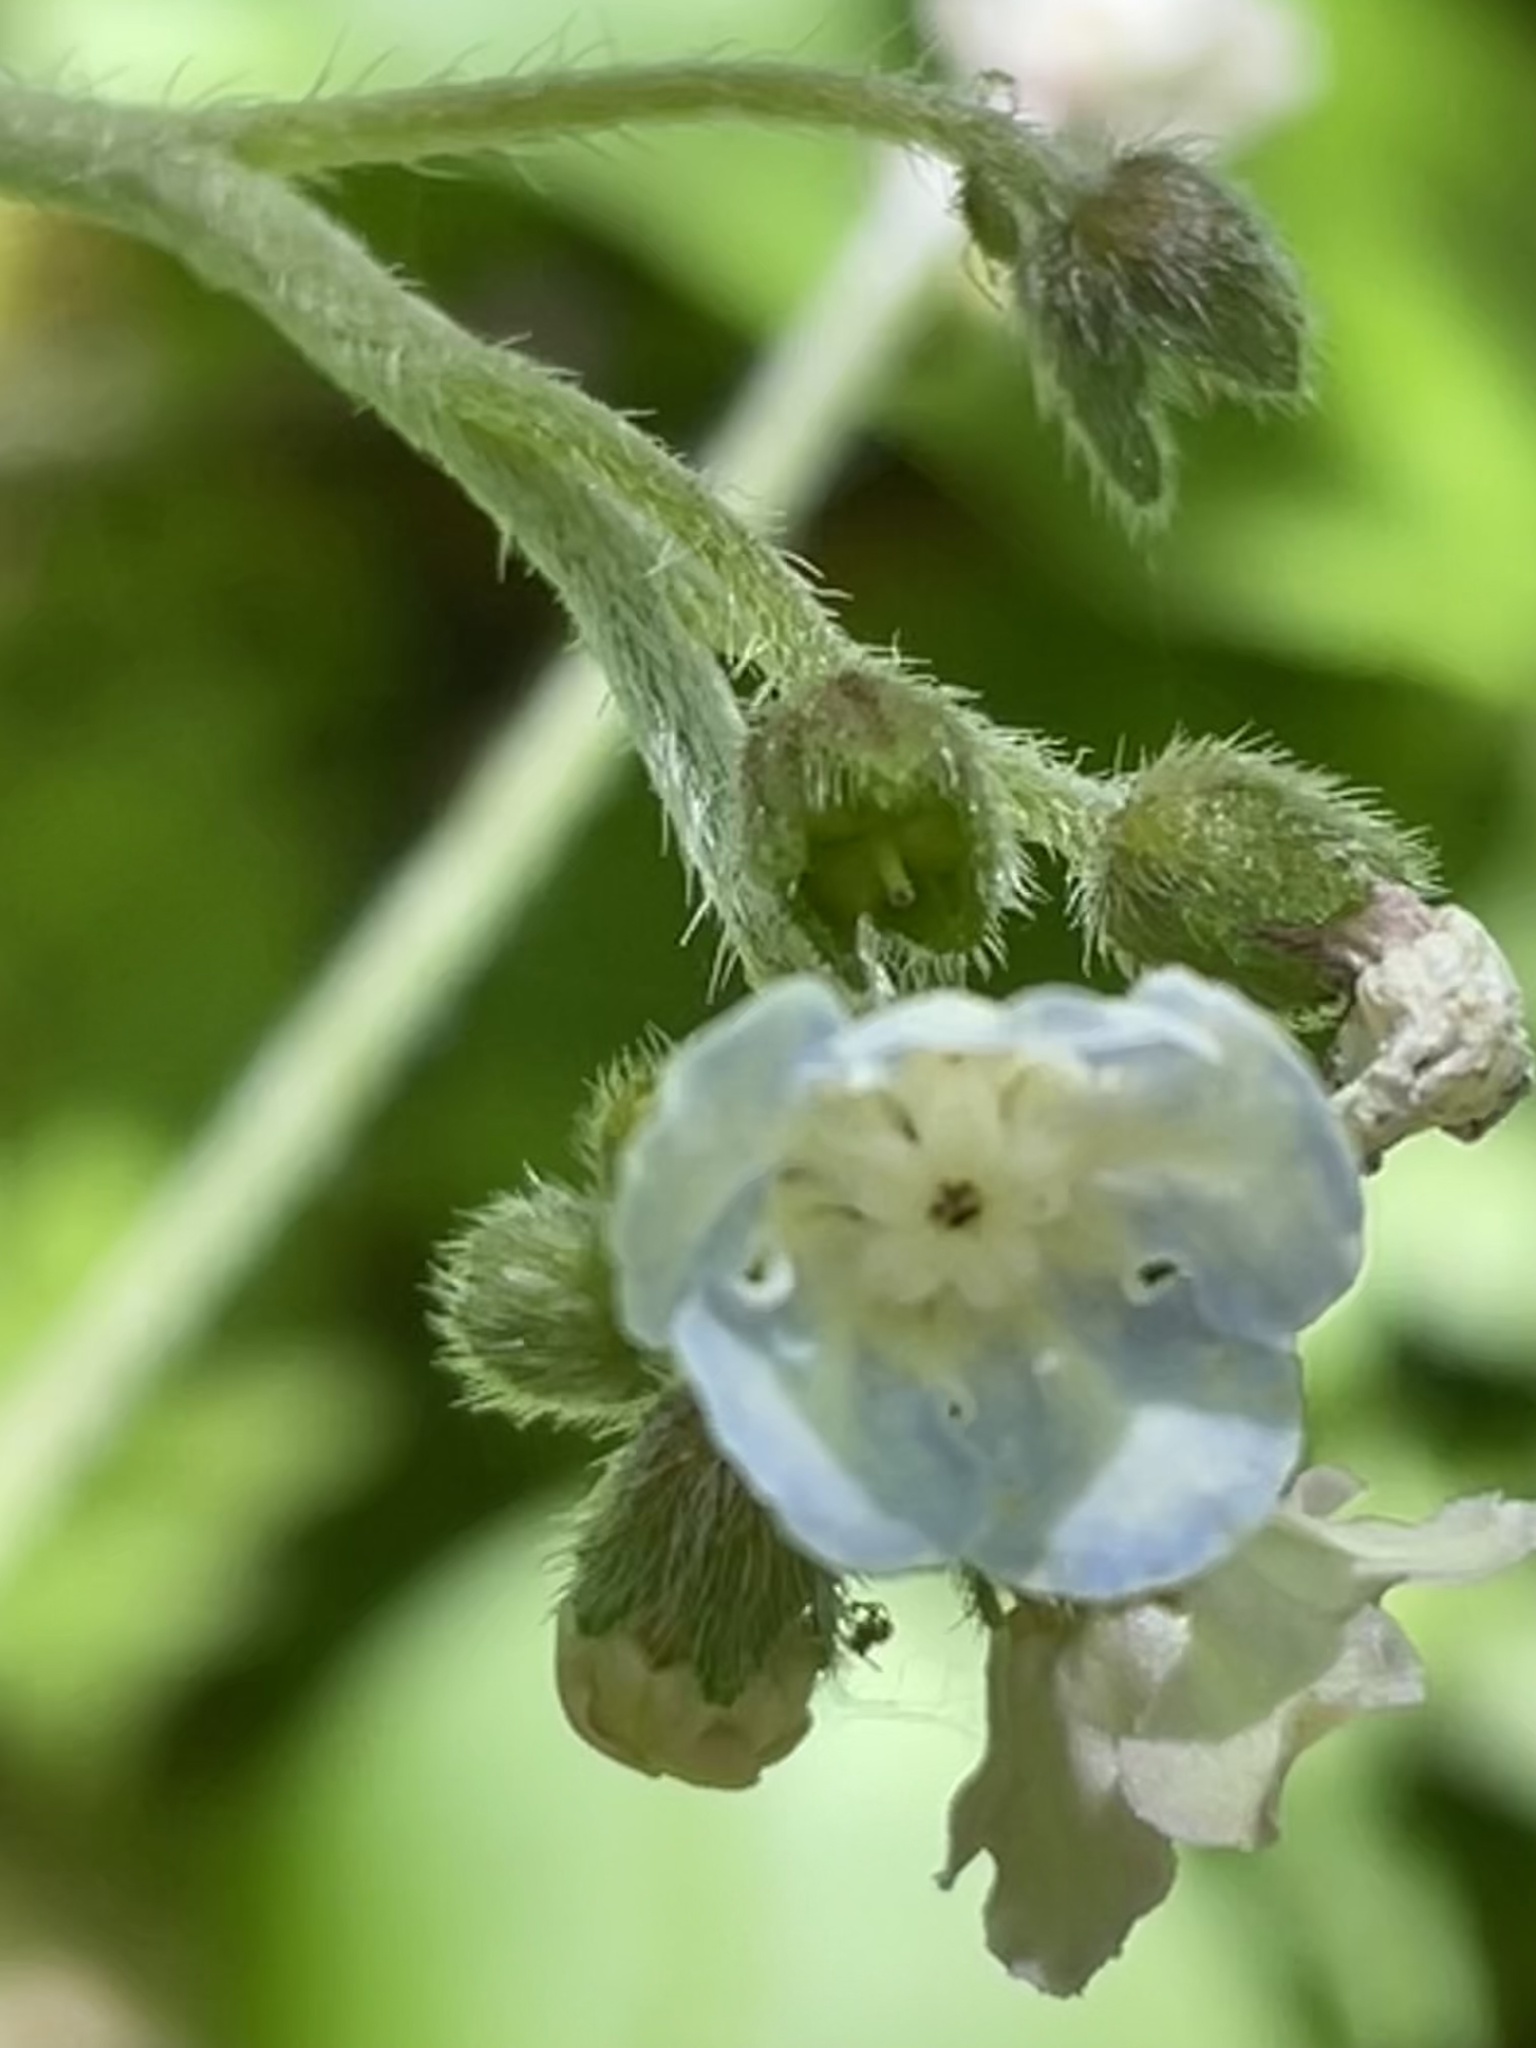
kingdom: Plantae
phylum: Tracheophyta
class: Magnoliopsida
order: Boraginales
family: Boraginaceae
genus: Andersonglossum
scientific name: Andersonglossum virginianum
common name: Wild comfrey
